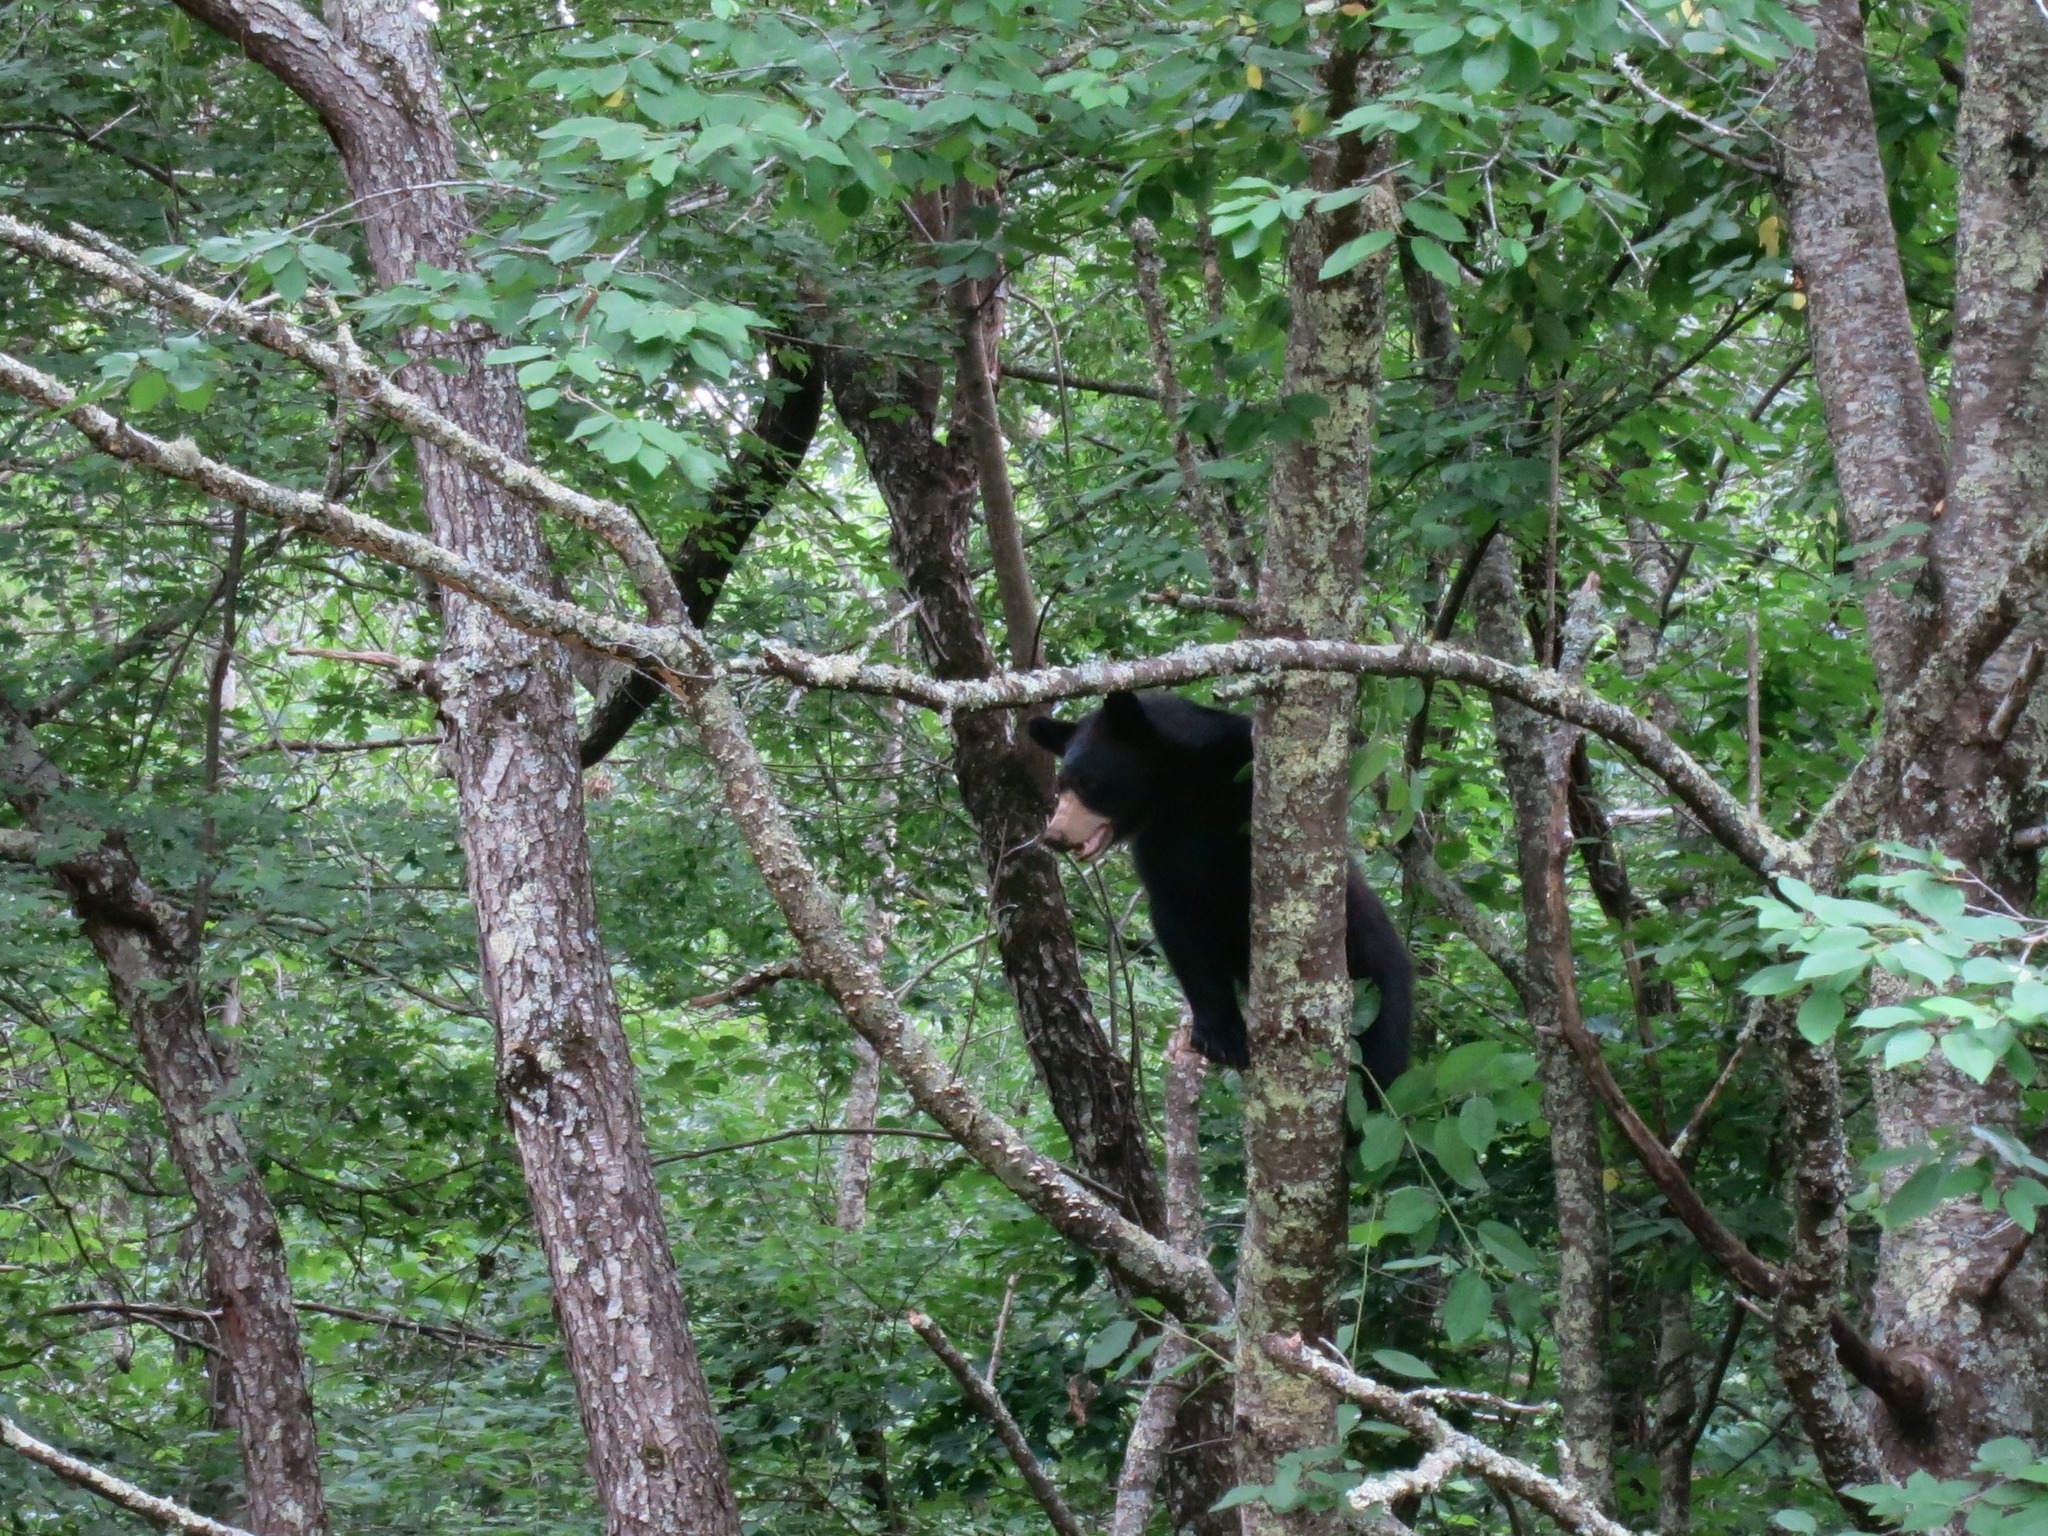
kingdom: Animalia
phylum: Chordata
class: Mammalia
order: Carnivora
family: Ursidae
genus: Ursus
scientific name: Ursus americanus
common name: American black bear
